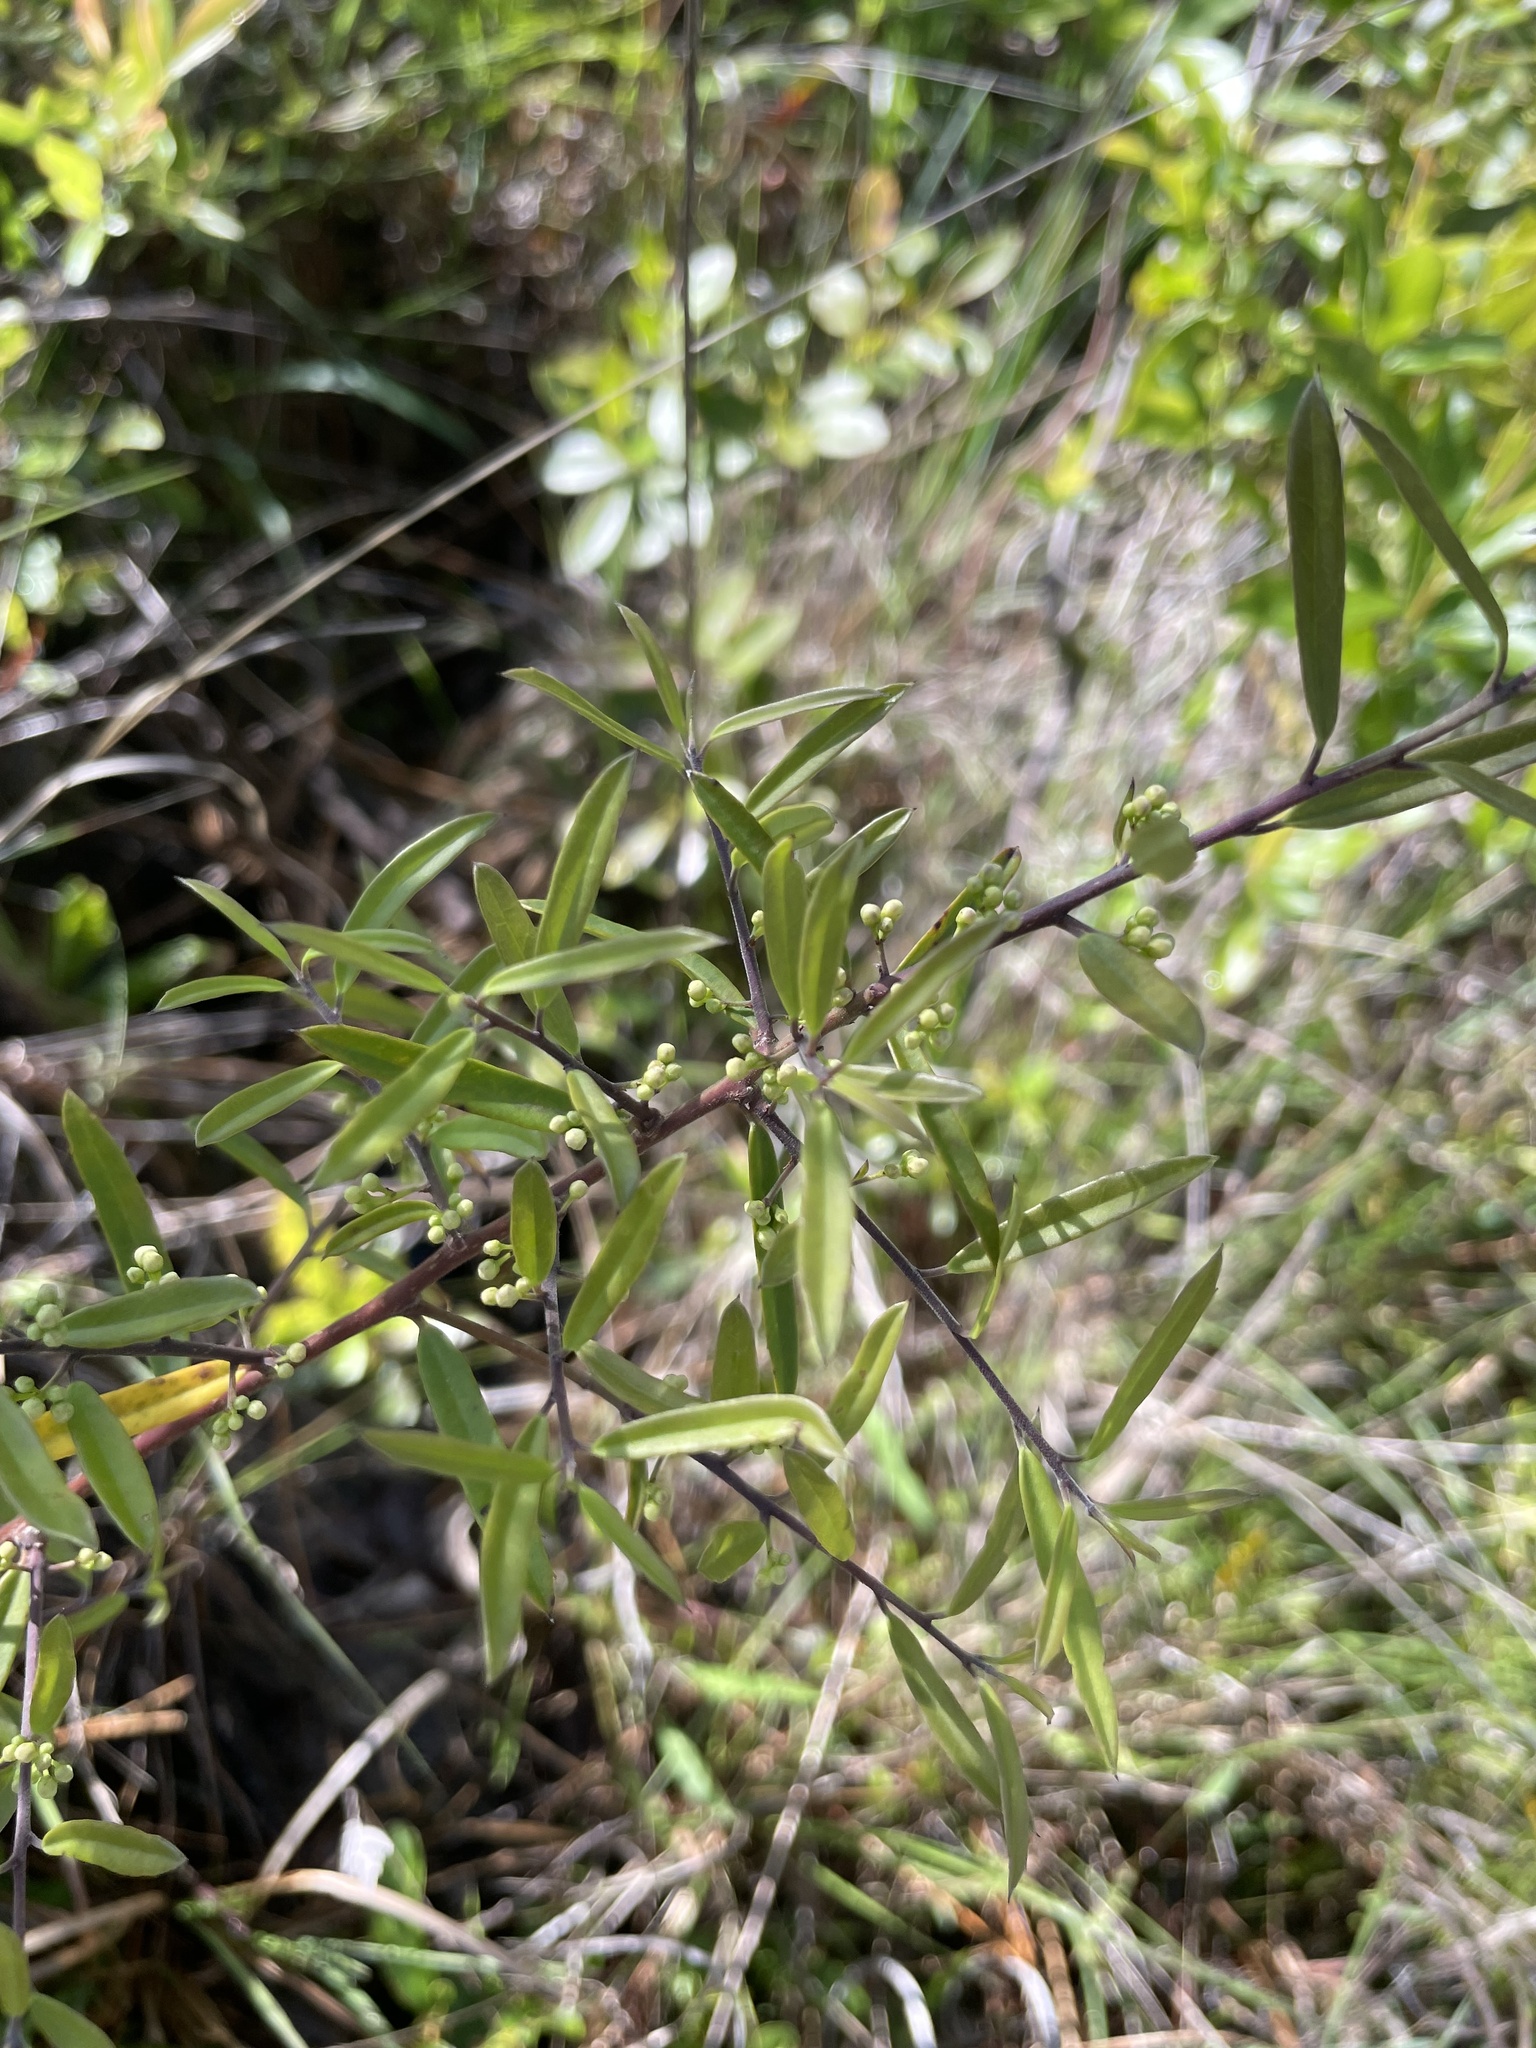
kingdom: Plantae
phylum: Tracheophyta
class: Magnoliopsida
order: Aquifoliales
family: Aquifoliaceae
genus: Ilex
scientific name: Ilex myrtifolia
